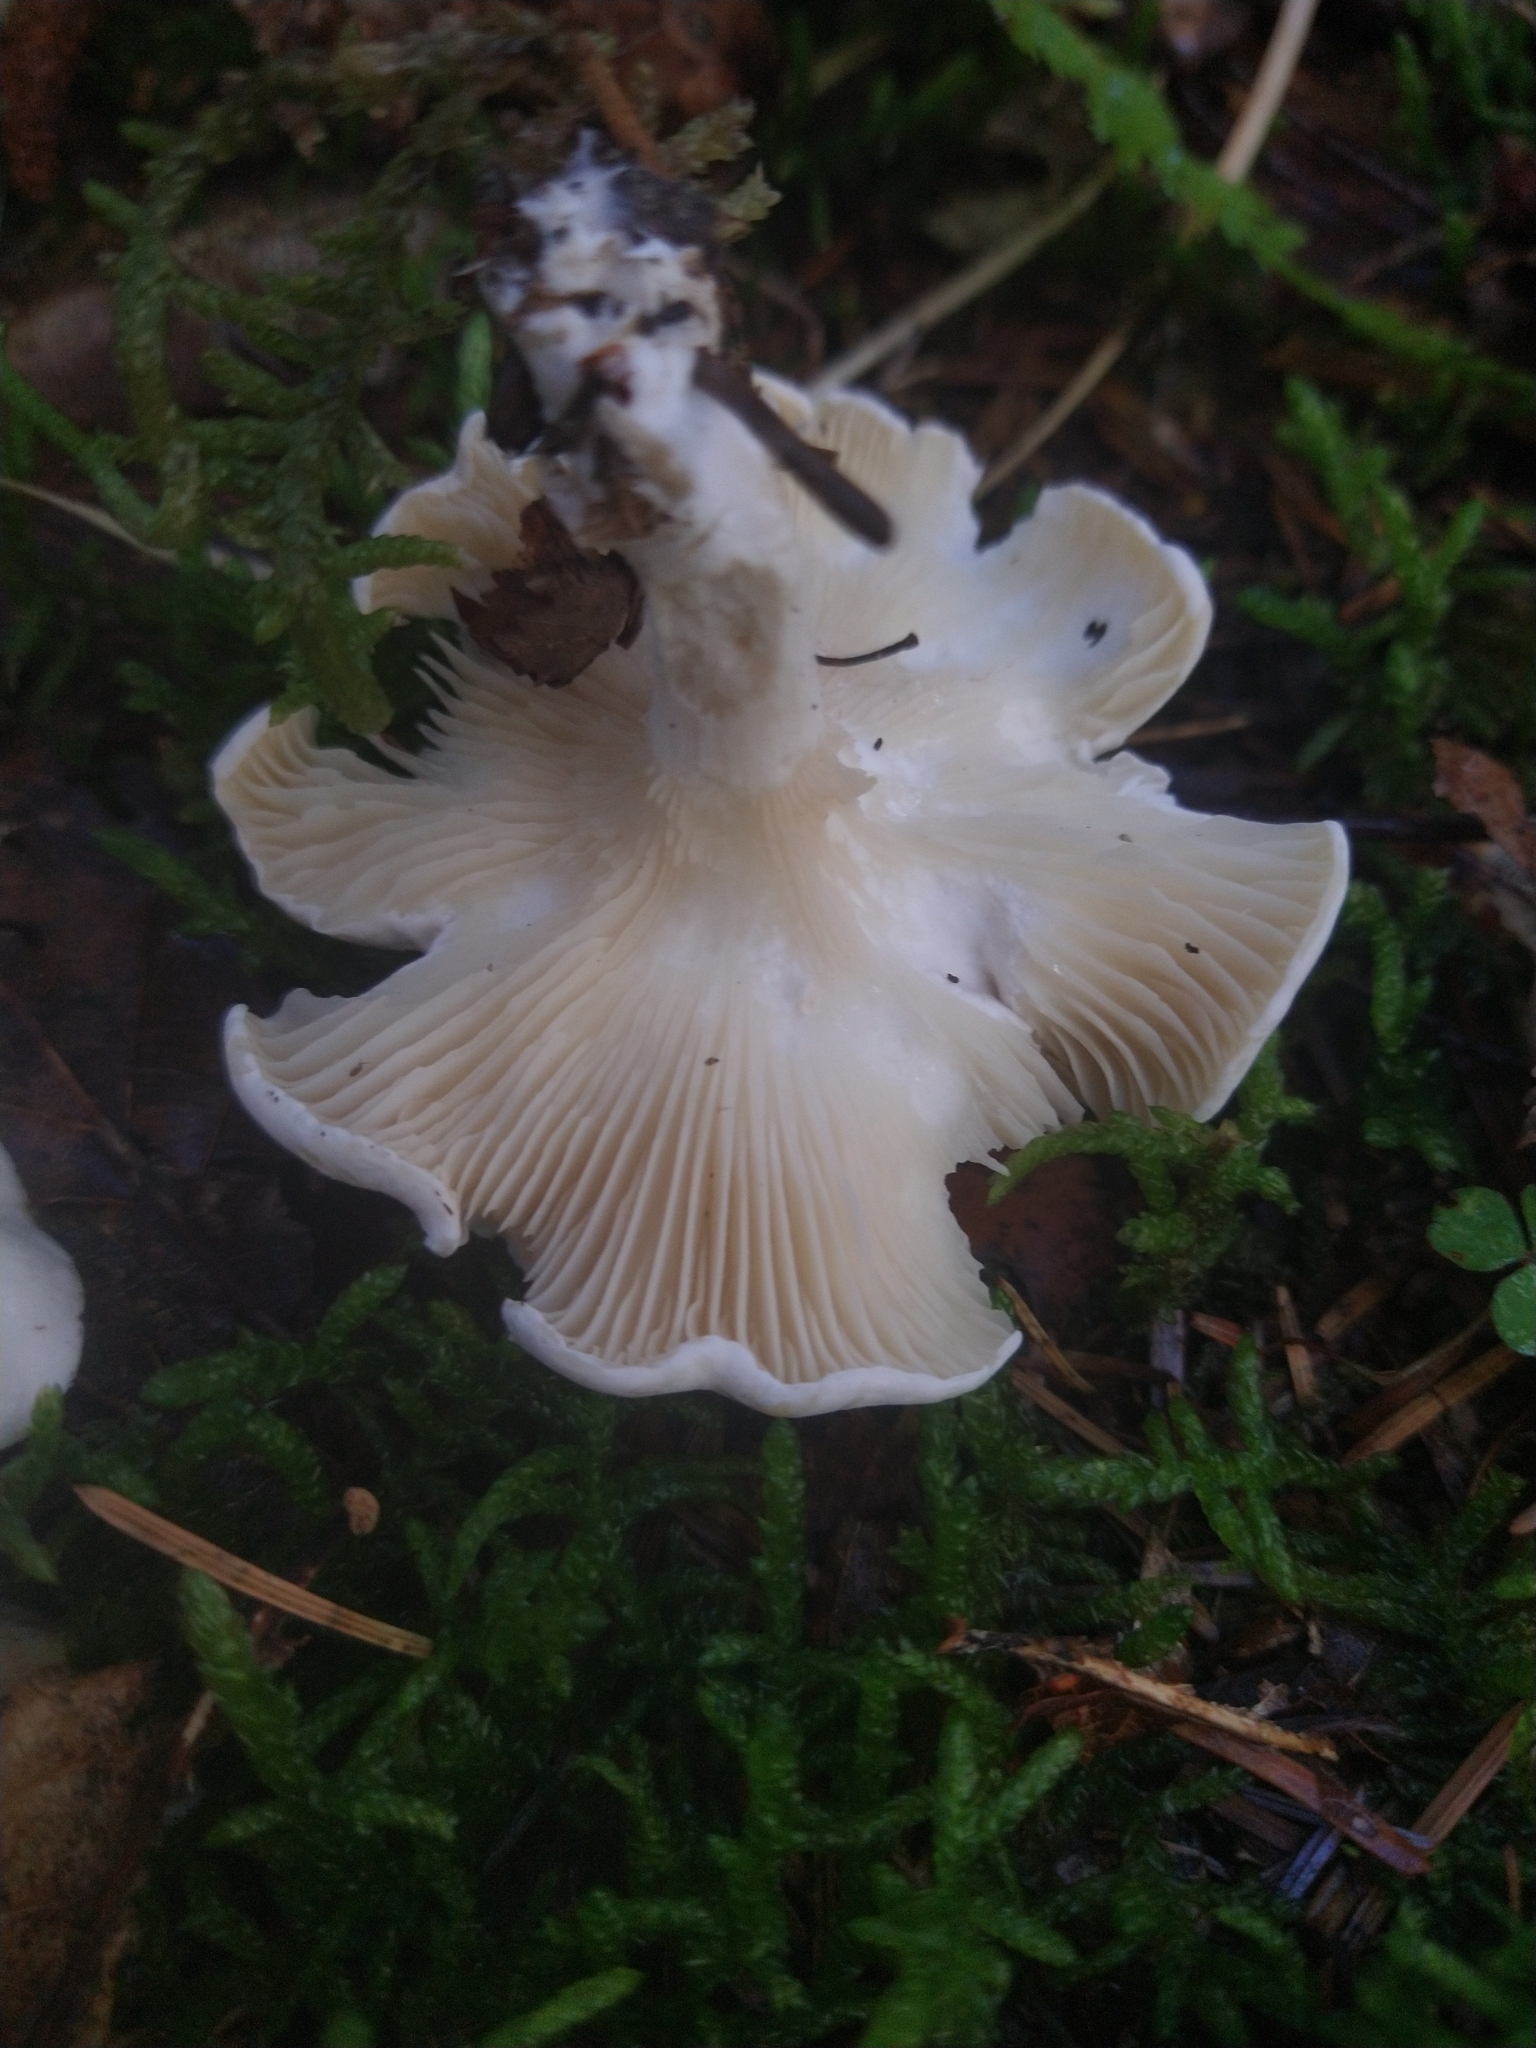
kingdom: Fungi
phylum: Basidiomycota
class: Agaricomycetes
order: Agaricales
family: Entolomataceae
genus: Clitopilus
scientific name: Clitopilus prunulus
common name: The miller
